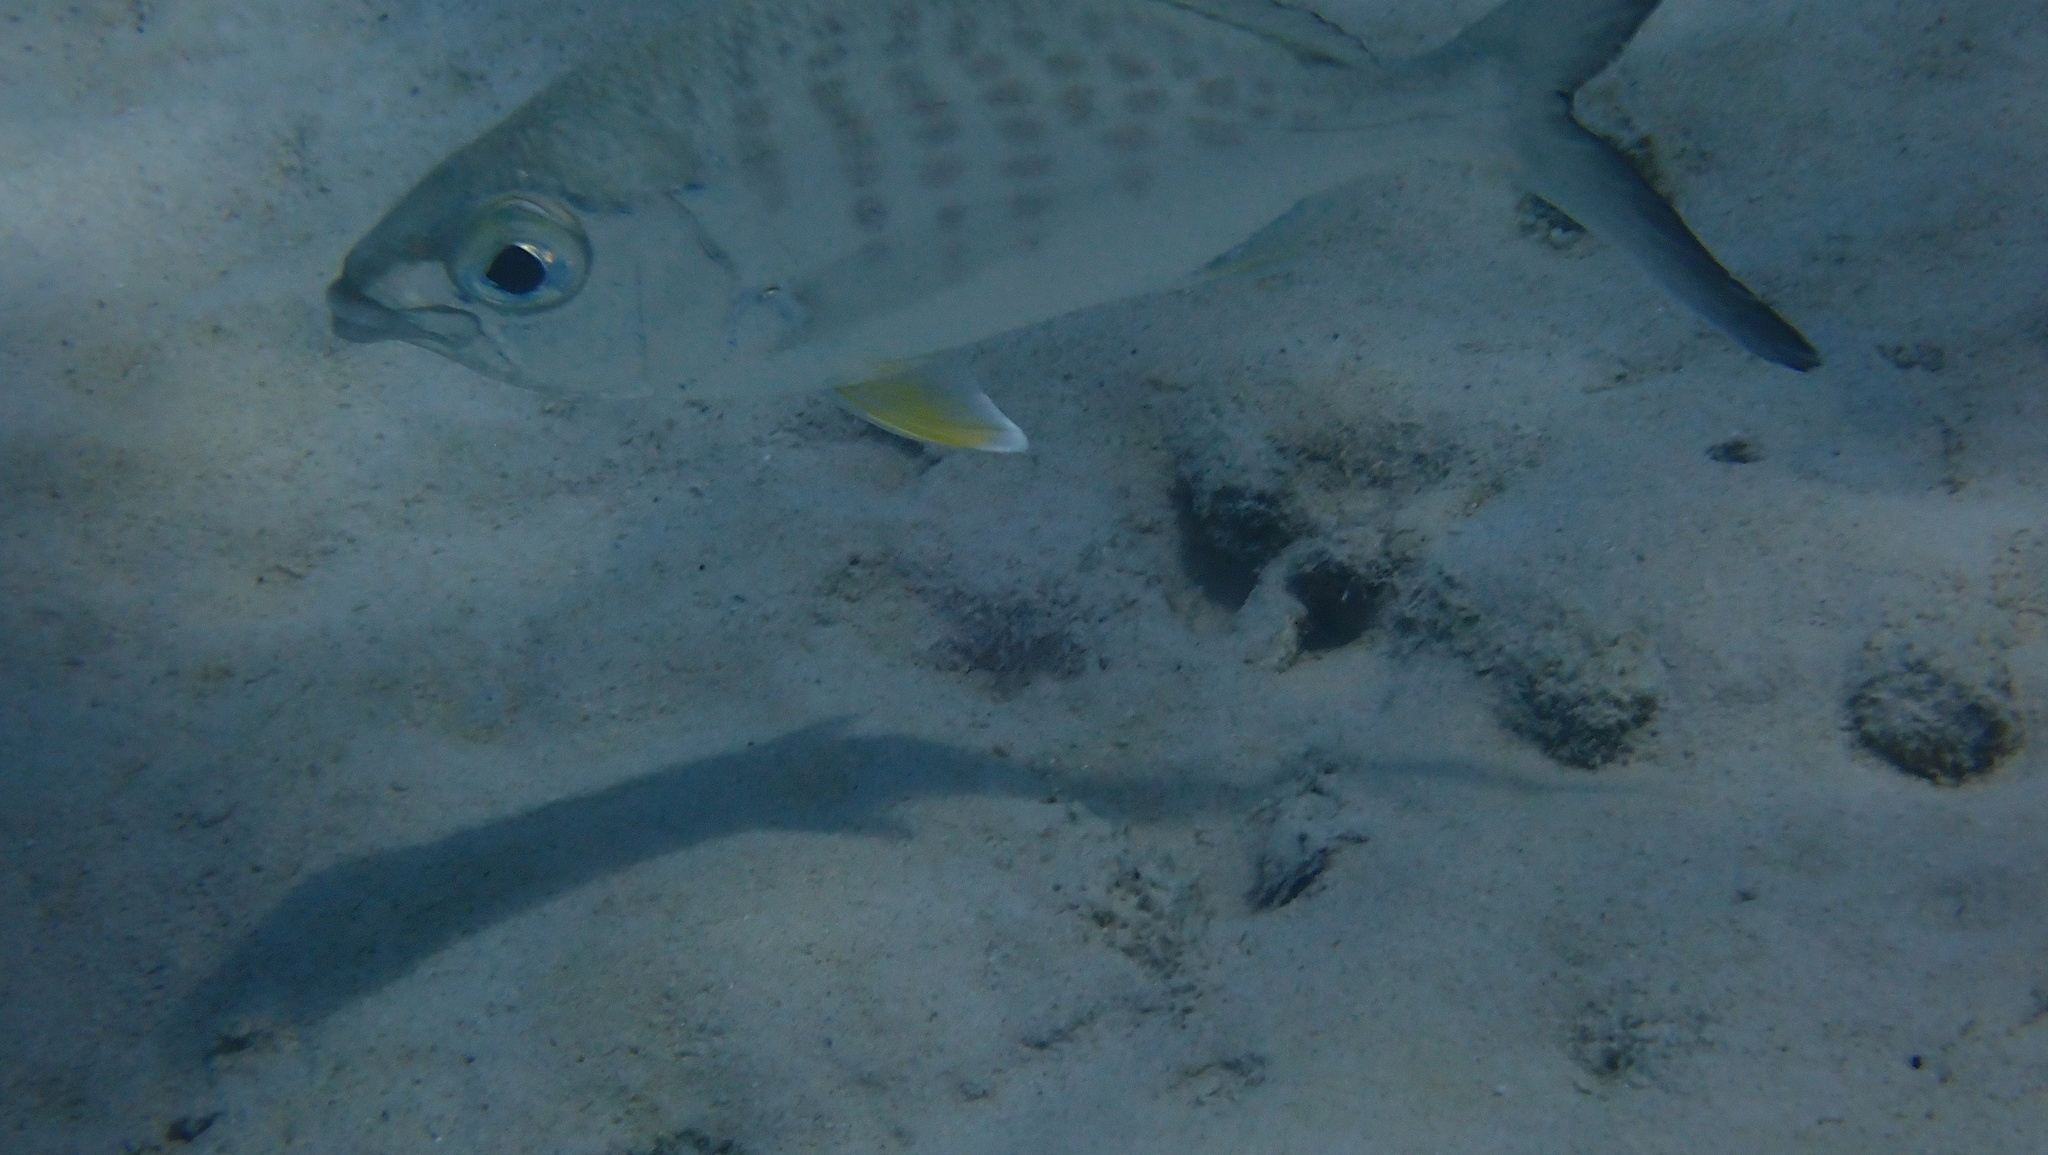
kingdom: Animalia
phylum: Chordata
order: Perciformes
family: Gerreidae
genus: Gerres
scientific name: Gerres cinereus
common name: Hedow
